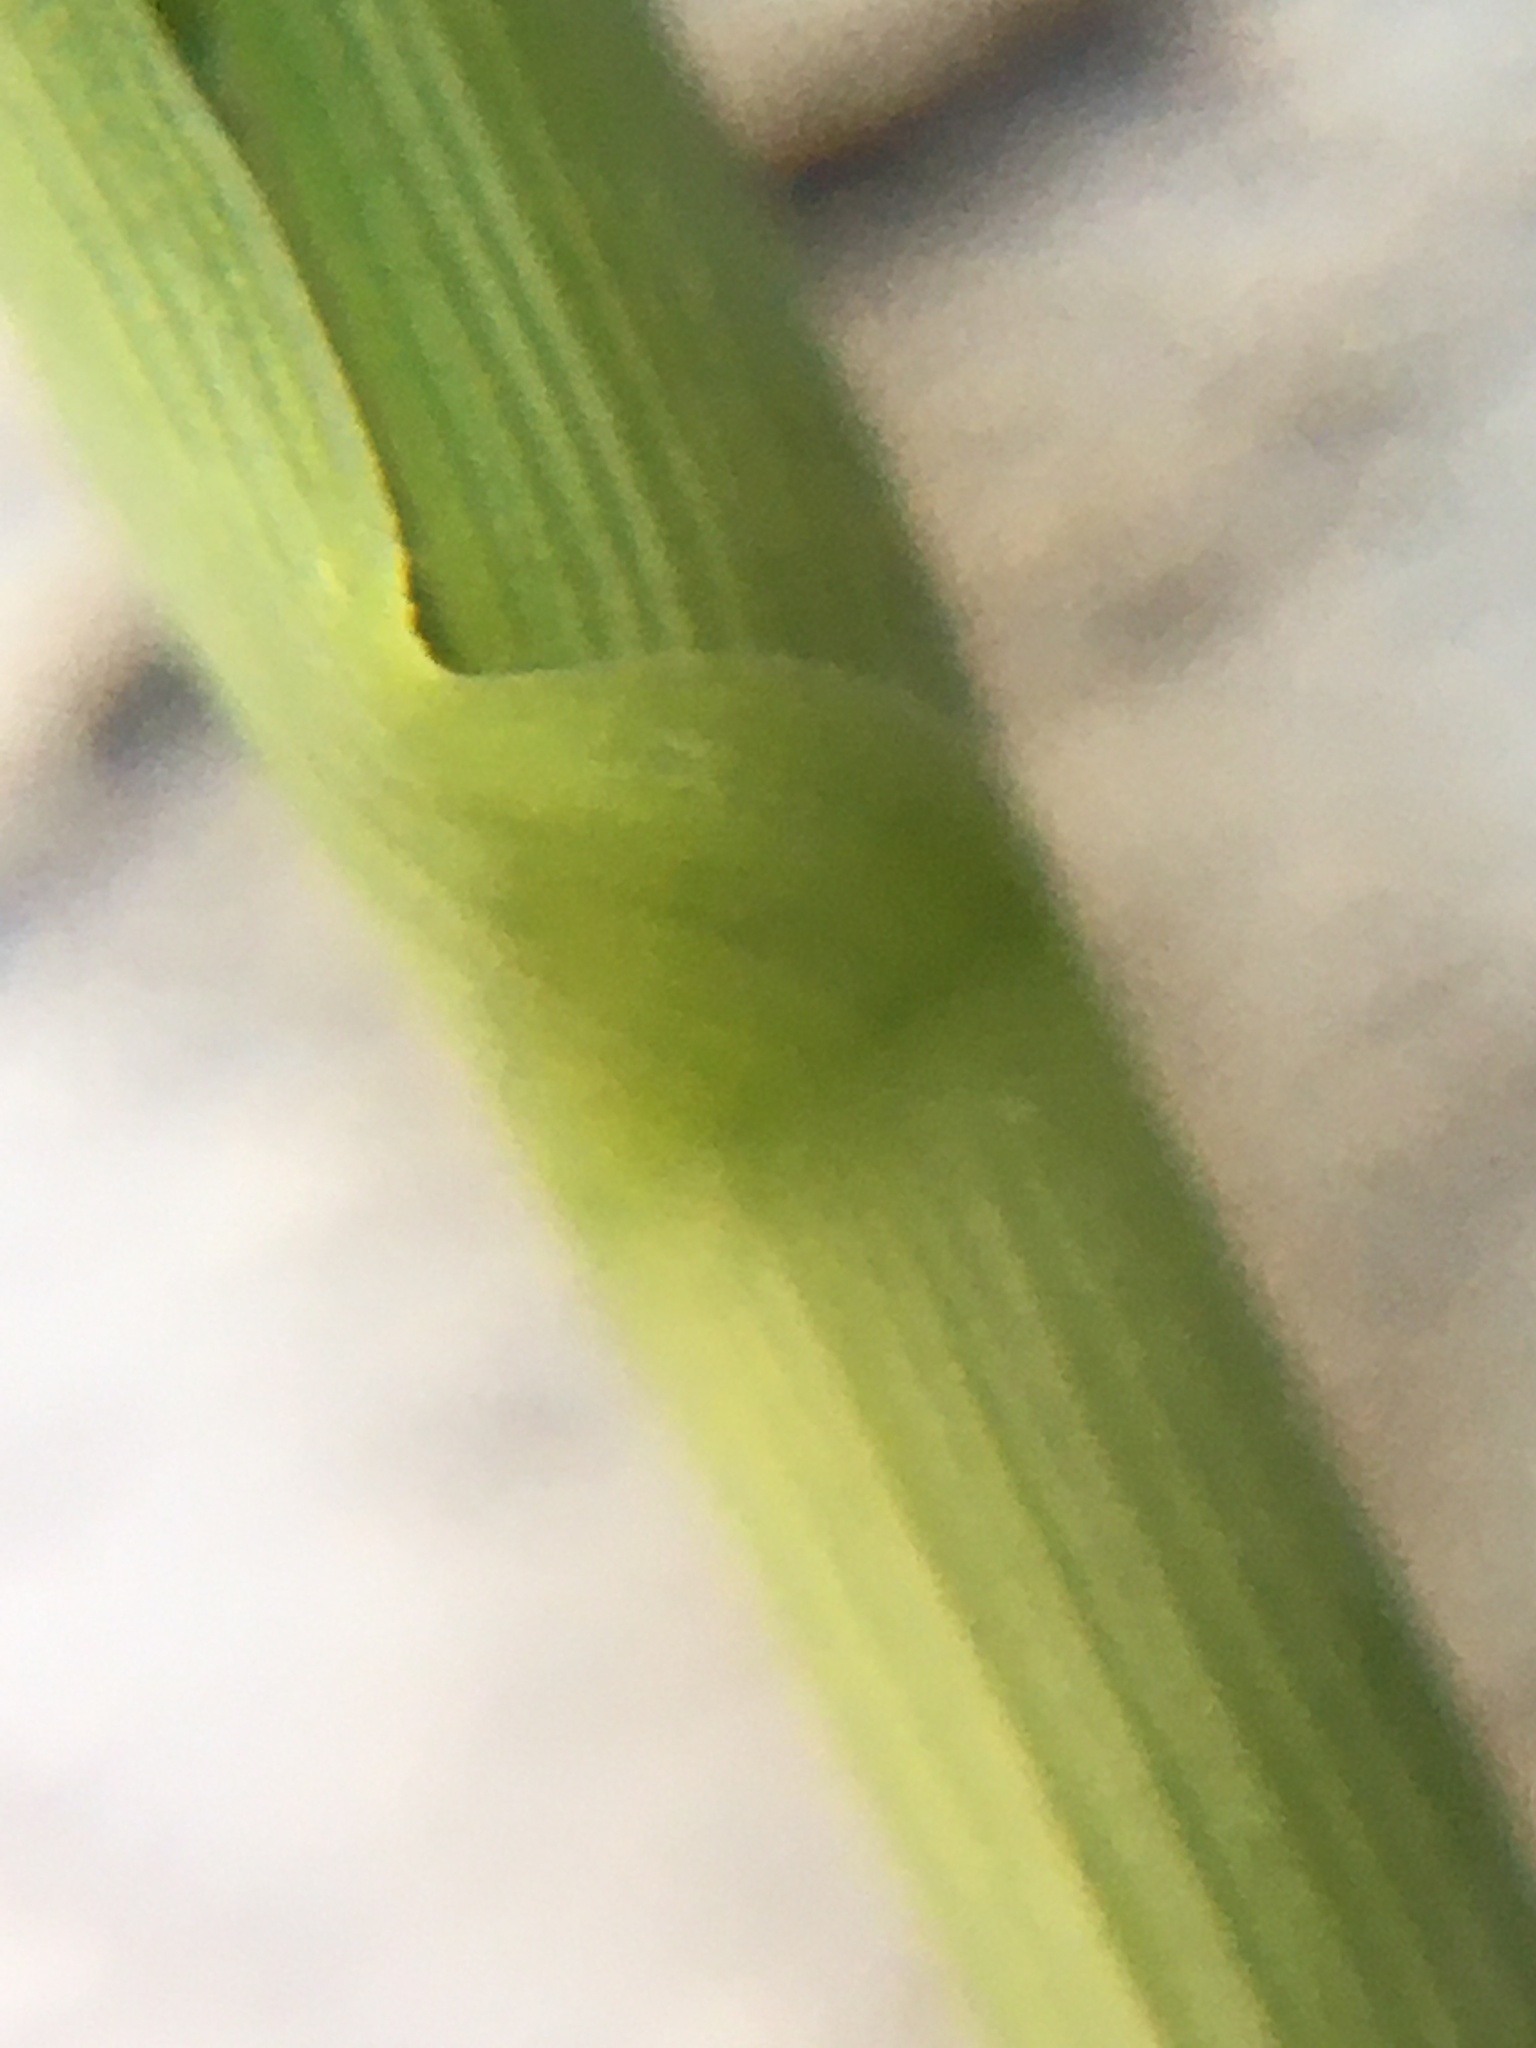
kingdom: Plantae
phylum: Tracheophyta
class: Liliopsida
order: Poales
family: Poaceae
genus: Eragrostis
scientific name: Eragrostis curvula
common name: African love-grass
